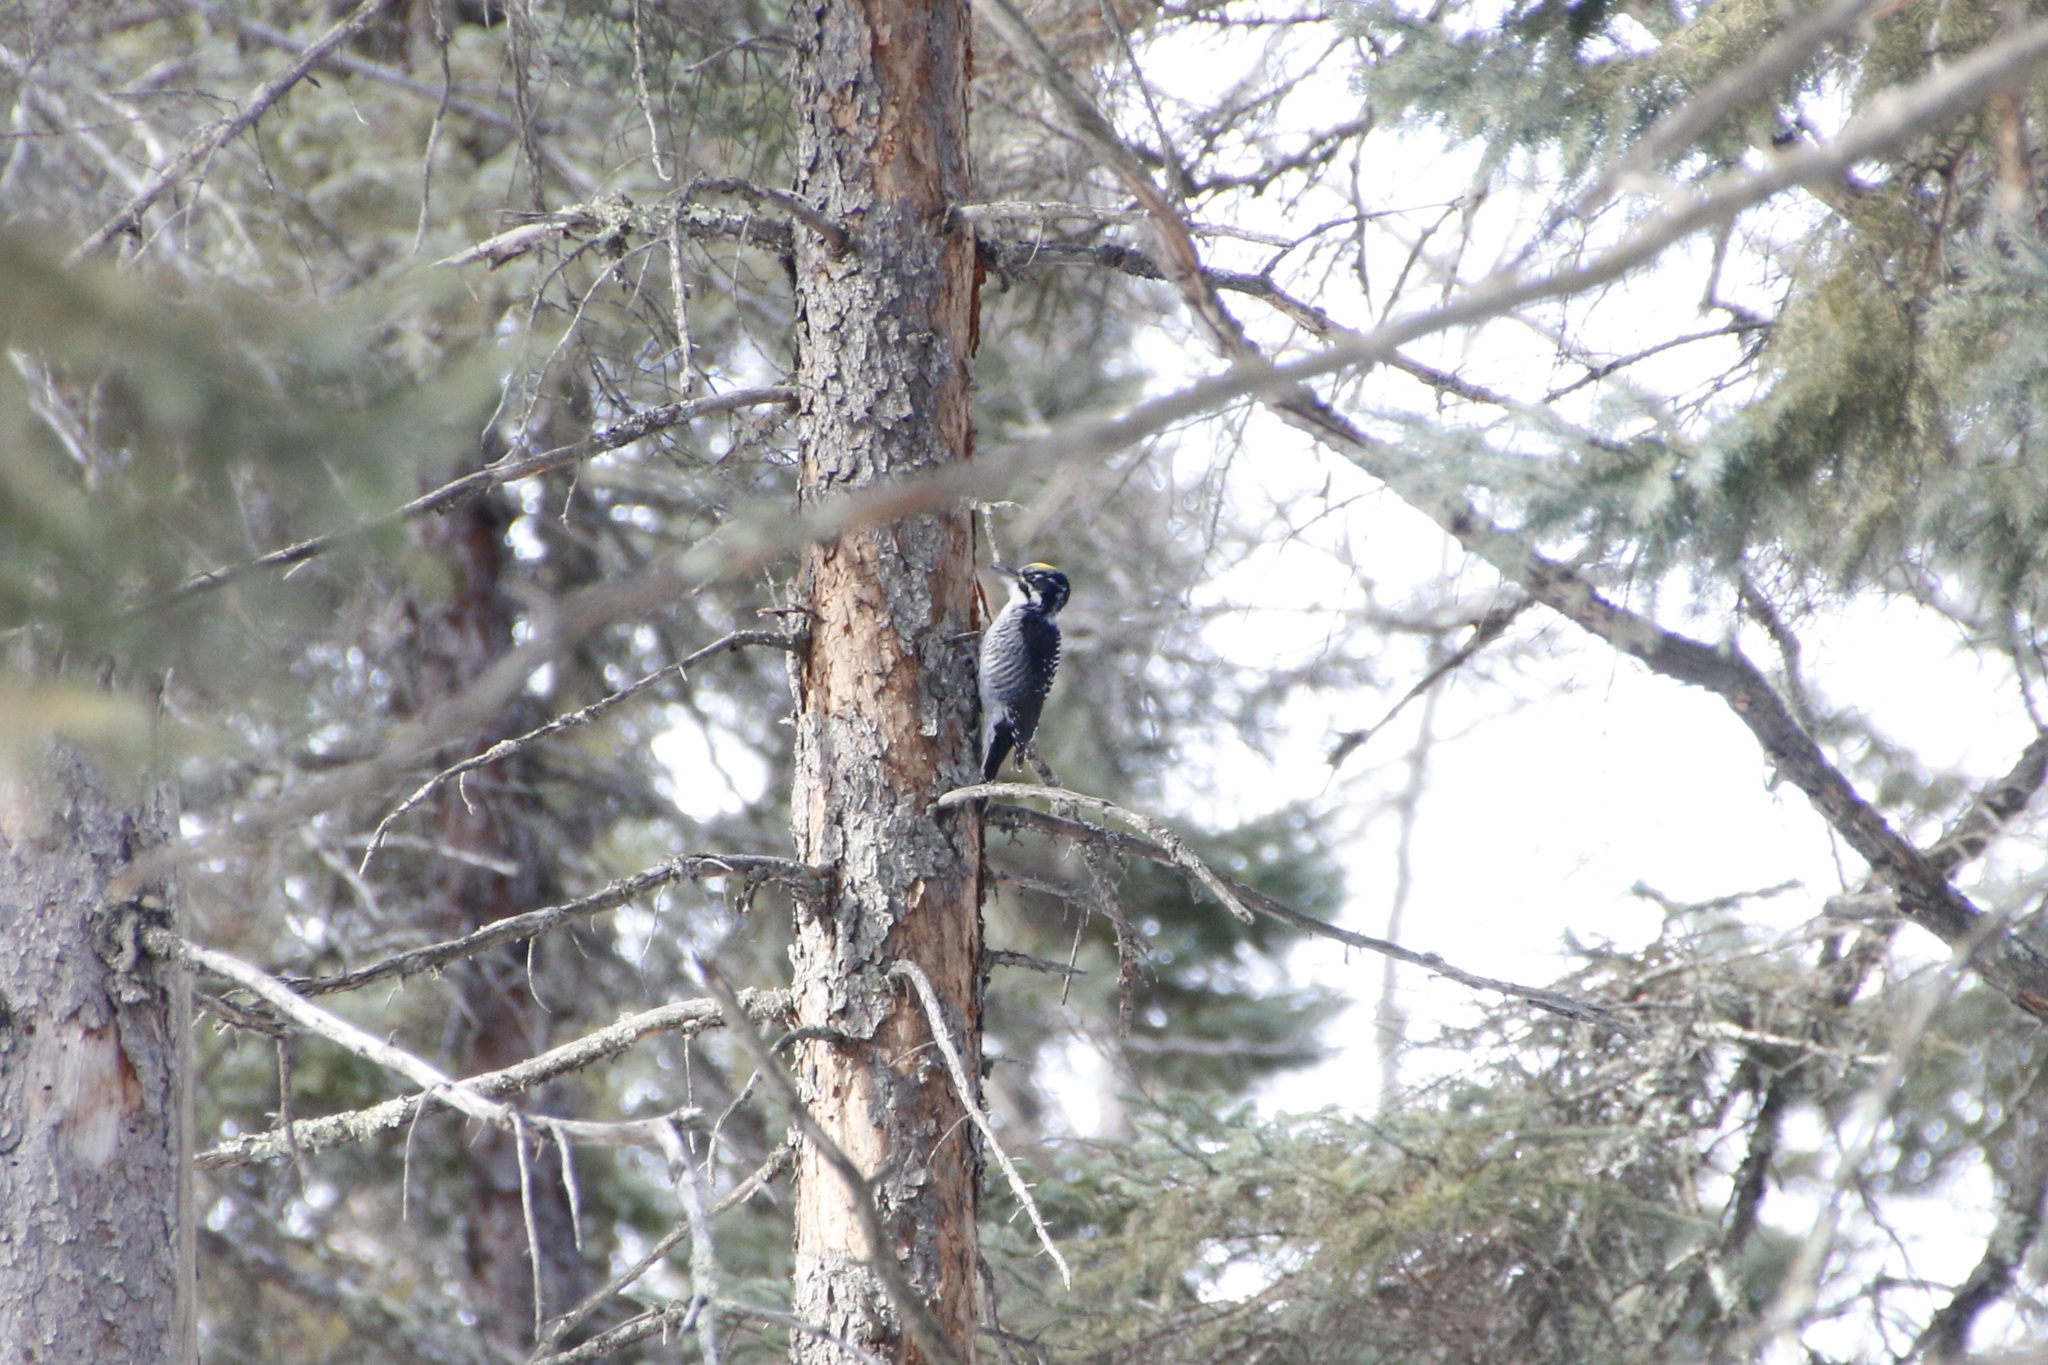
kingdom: Animalia
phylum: Chordata
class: Aves
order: Piciformes
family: Picidae
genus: Picoides
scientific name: Picoides dorsalis
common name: American three-toed woodpecker
